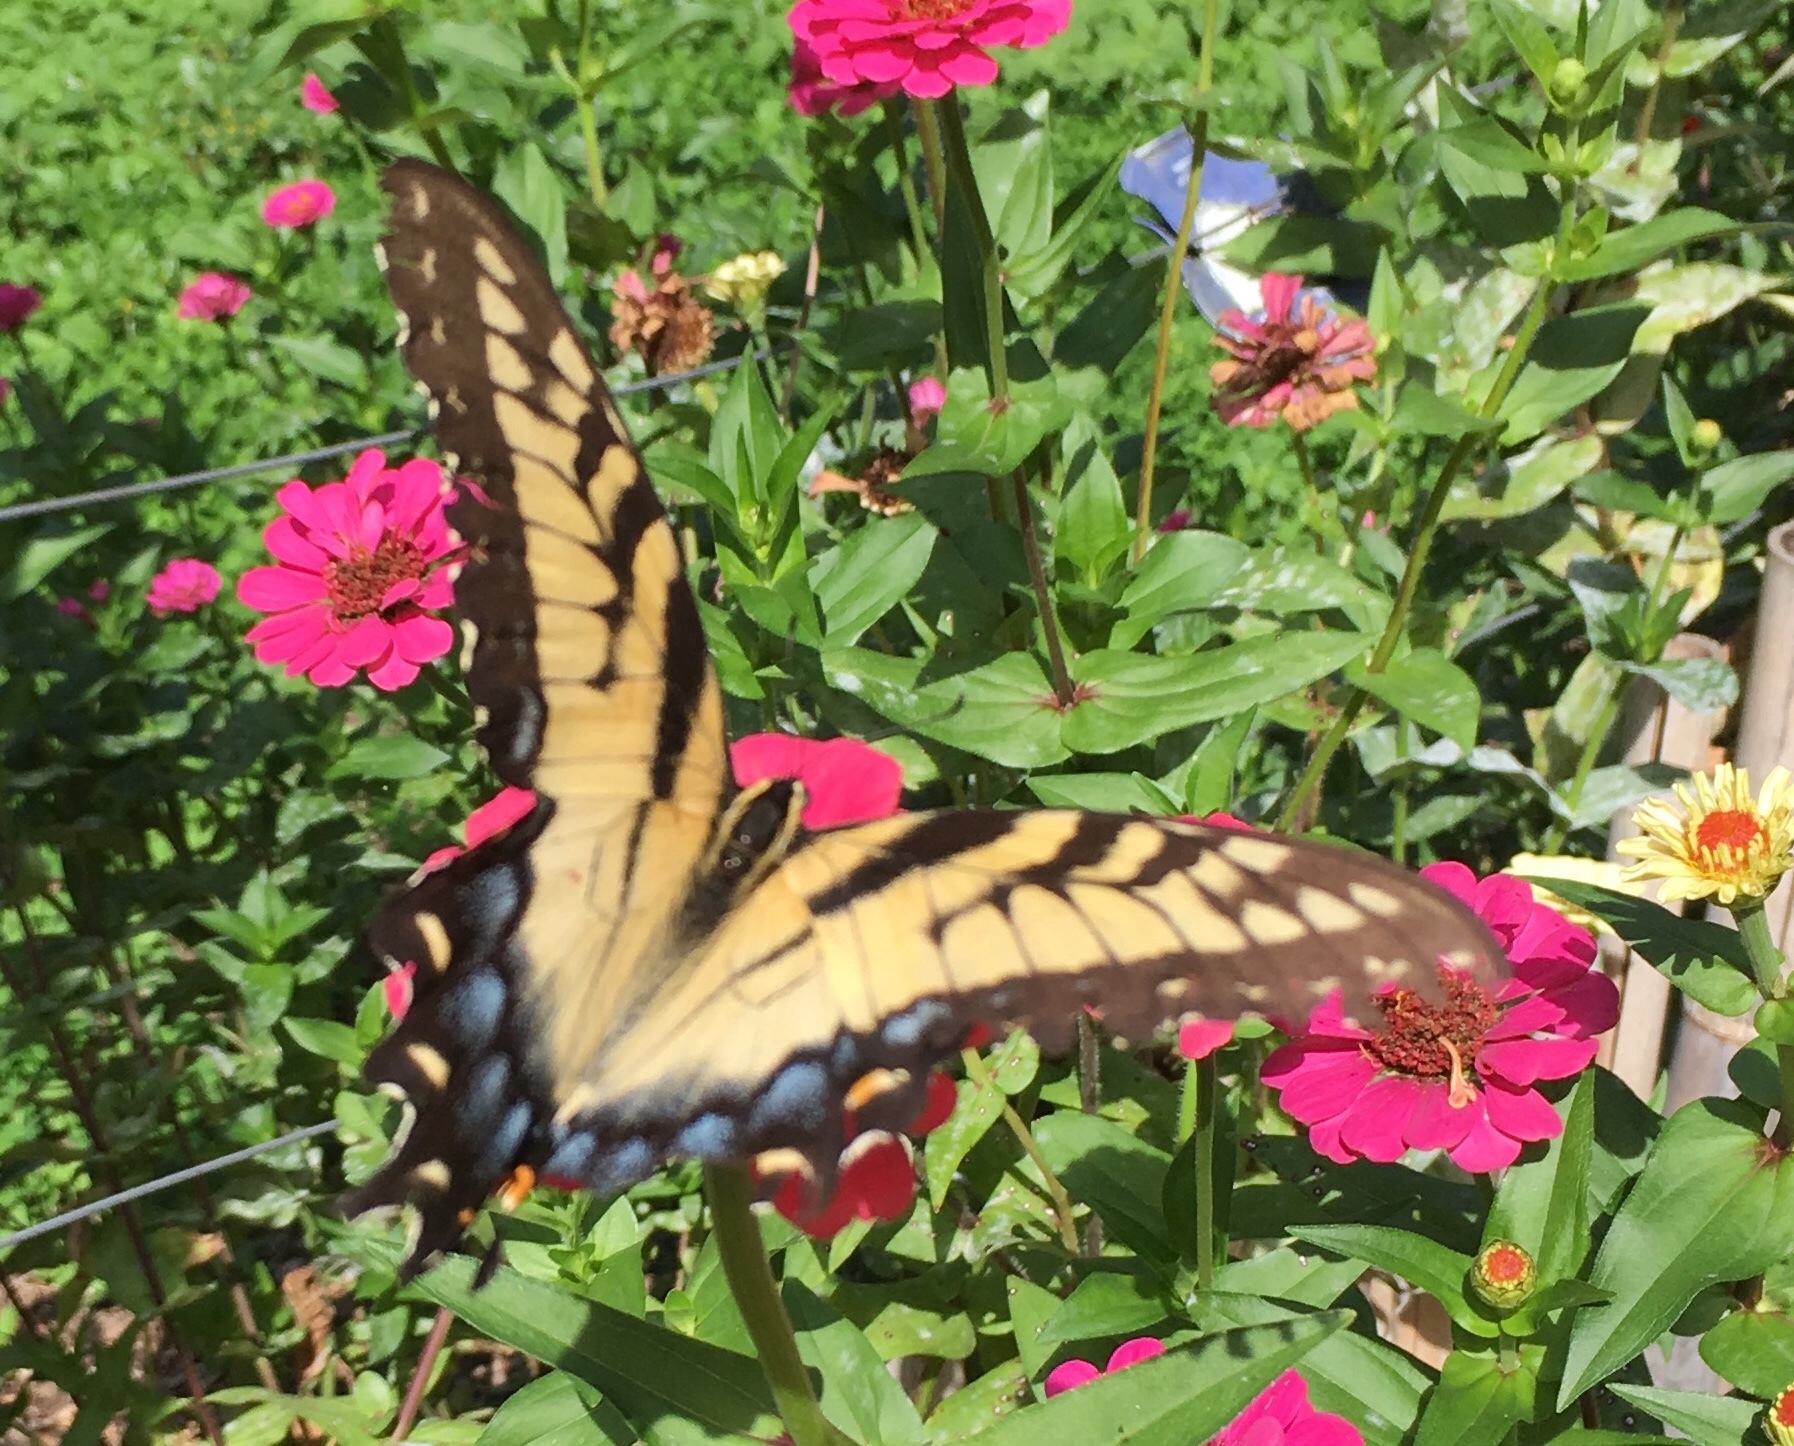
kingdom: Animalia
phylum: Arthropoda
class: Insecta
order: Lepidoptera
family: Papilionidae
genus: Papilio
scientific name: Papilio glaucus
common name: Tiger swallowtail
